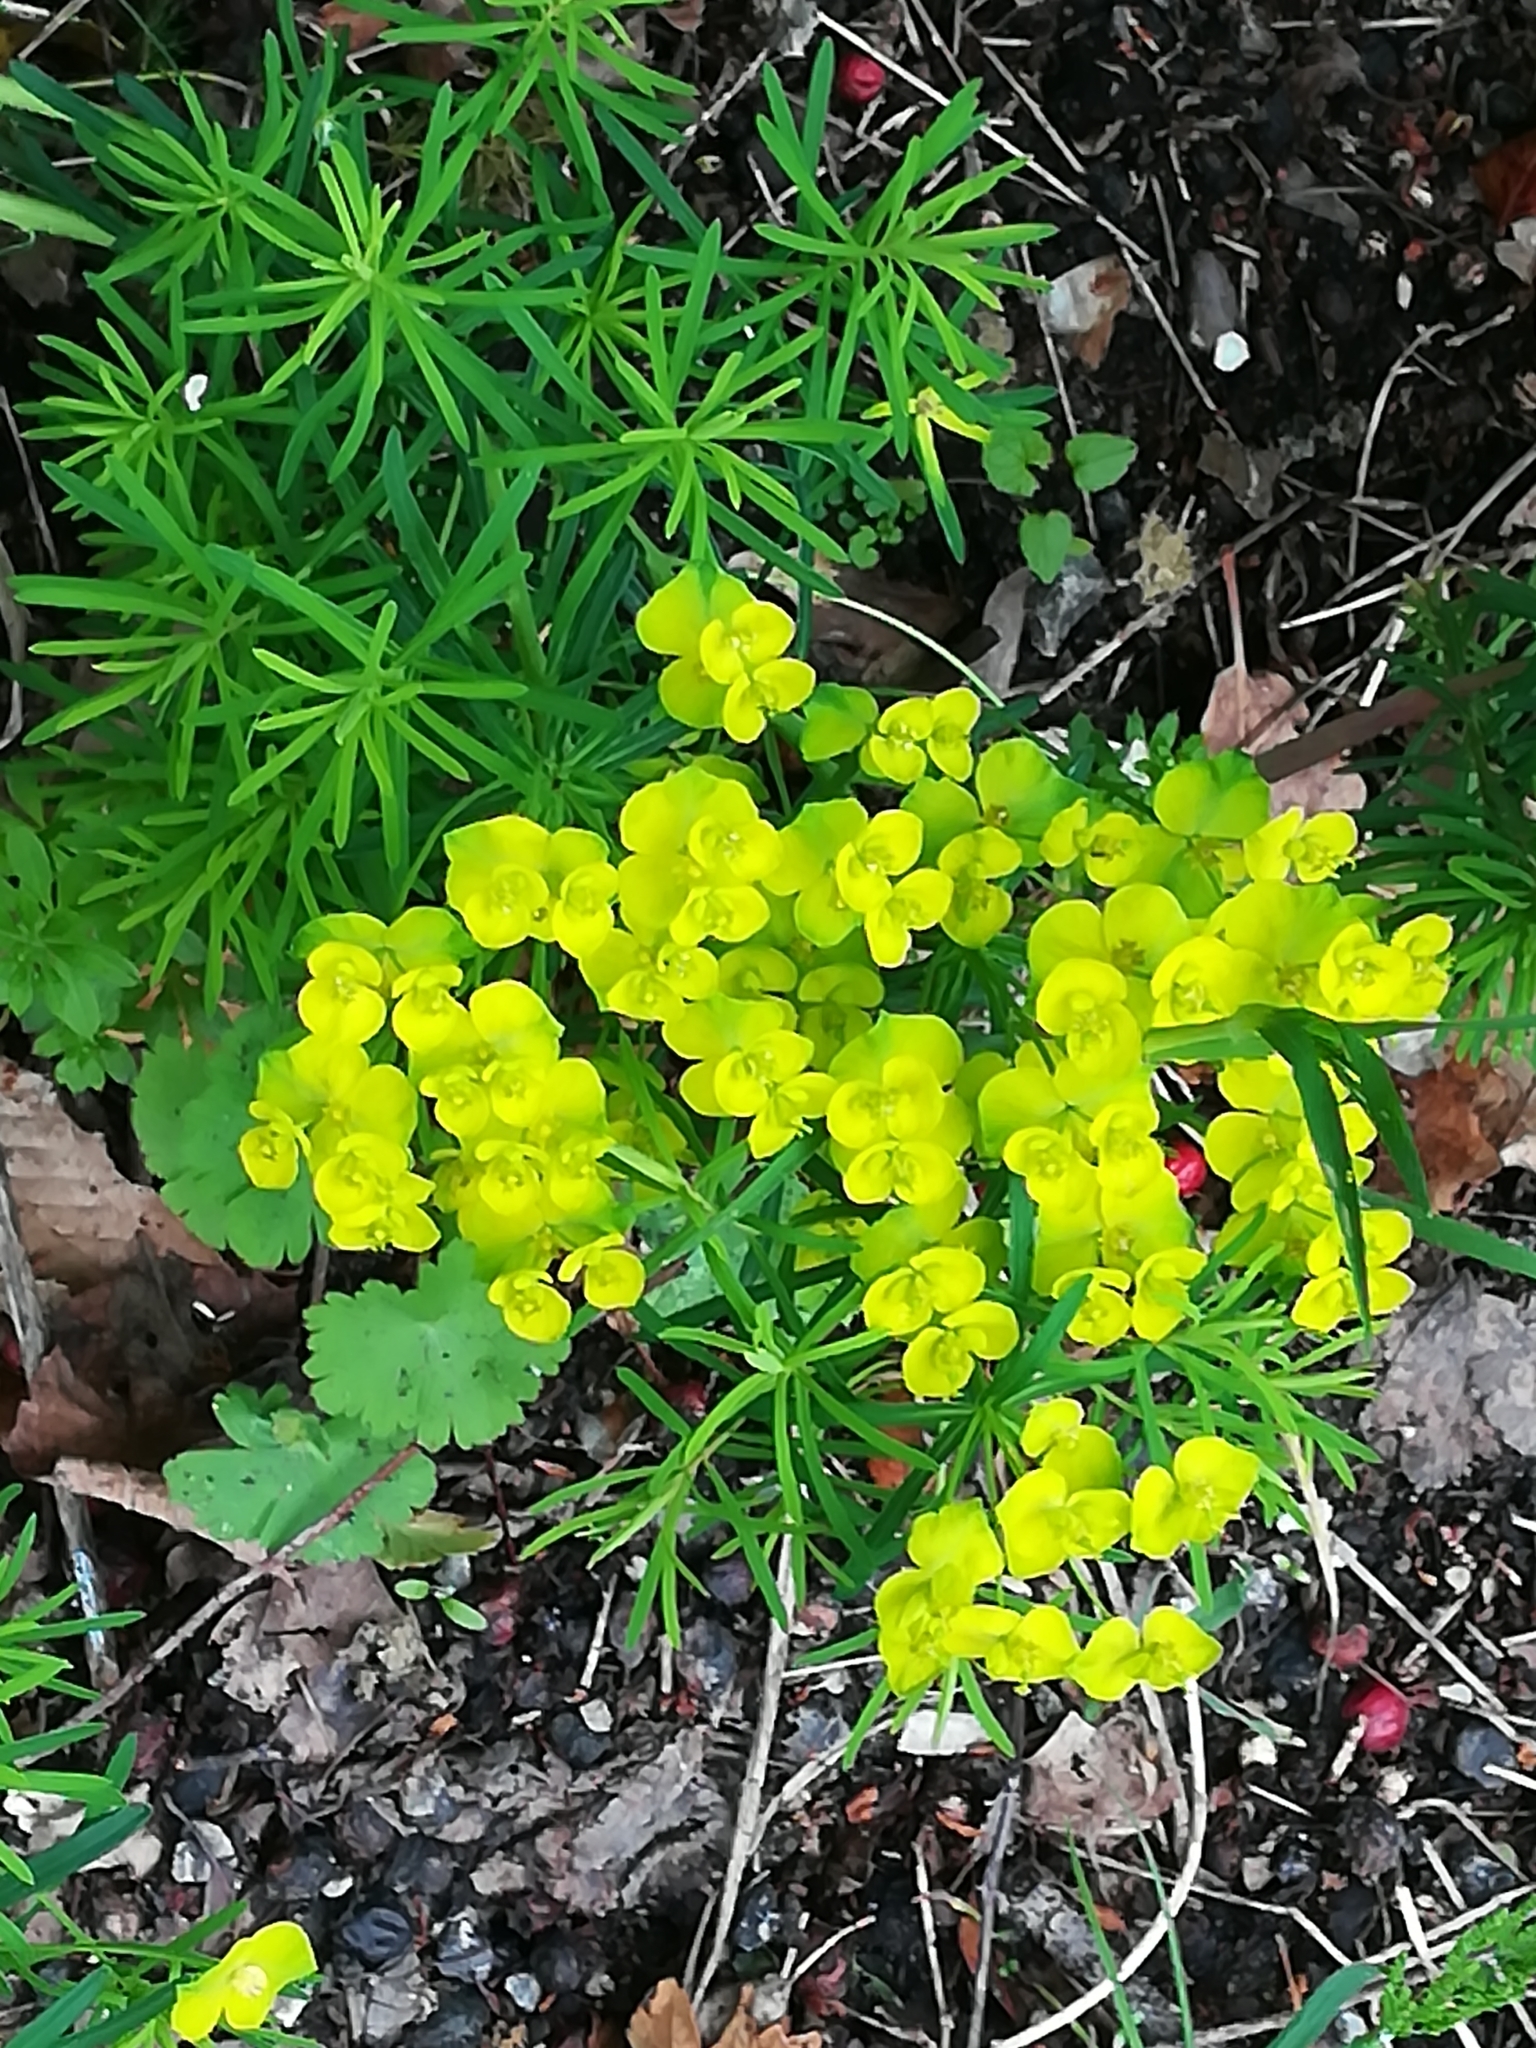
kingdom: Plantae
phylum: Tracheophyta
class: Magnoliopsida
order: Malpighiales
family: Euphorbiaceae
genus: Euphorbia
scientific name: Euphorbia cyparissias
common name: Cypress spurge
